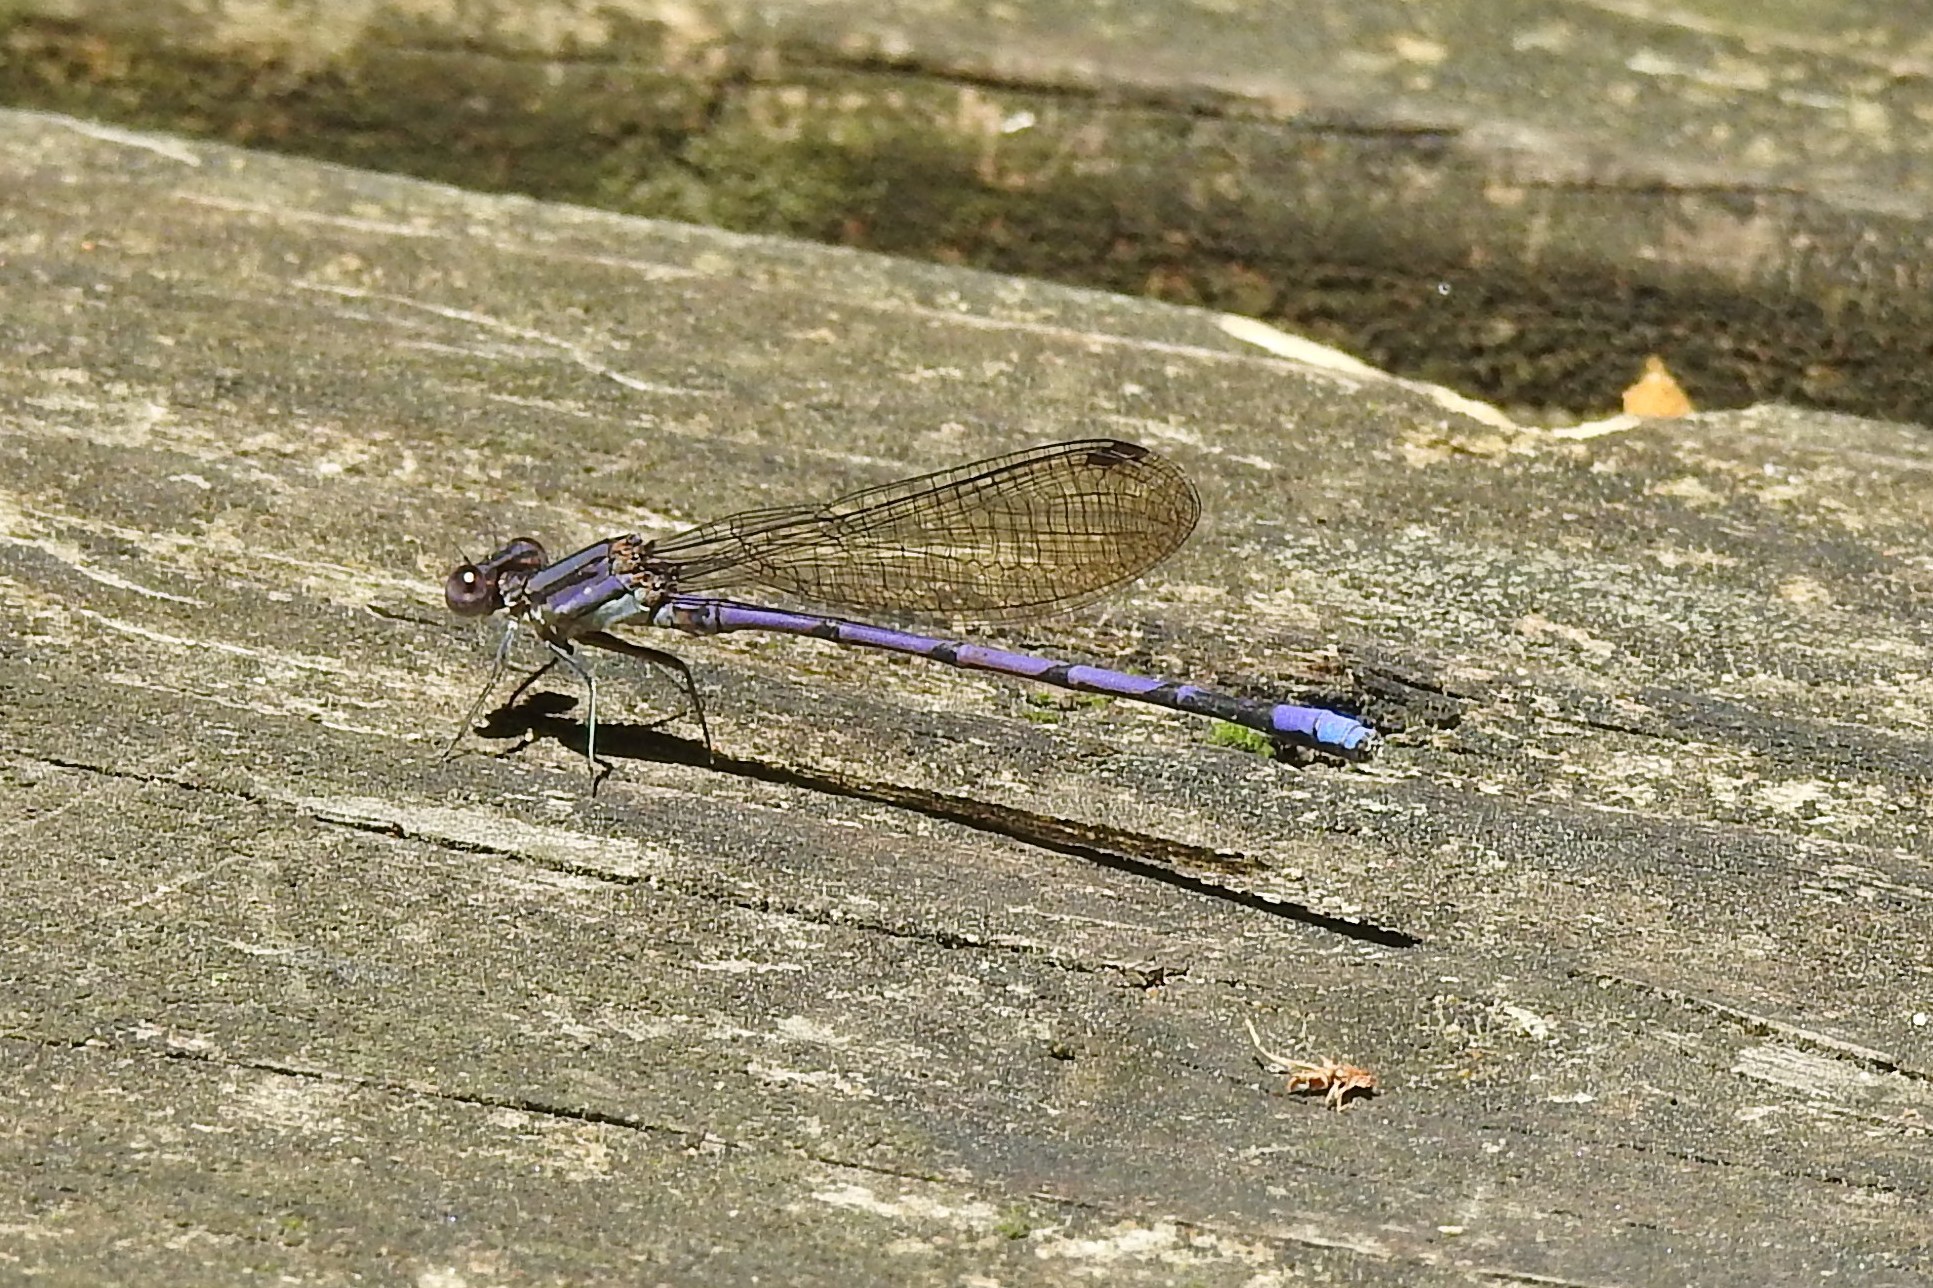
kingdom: Animalia
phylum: Arthropoda
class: Insecta
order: Odonata
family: Coenagrionidae
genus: Argia
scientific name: Argia fumipennis
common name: Variable dancer
